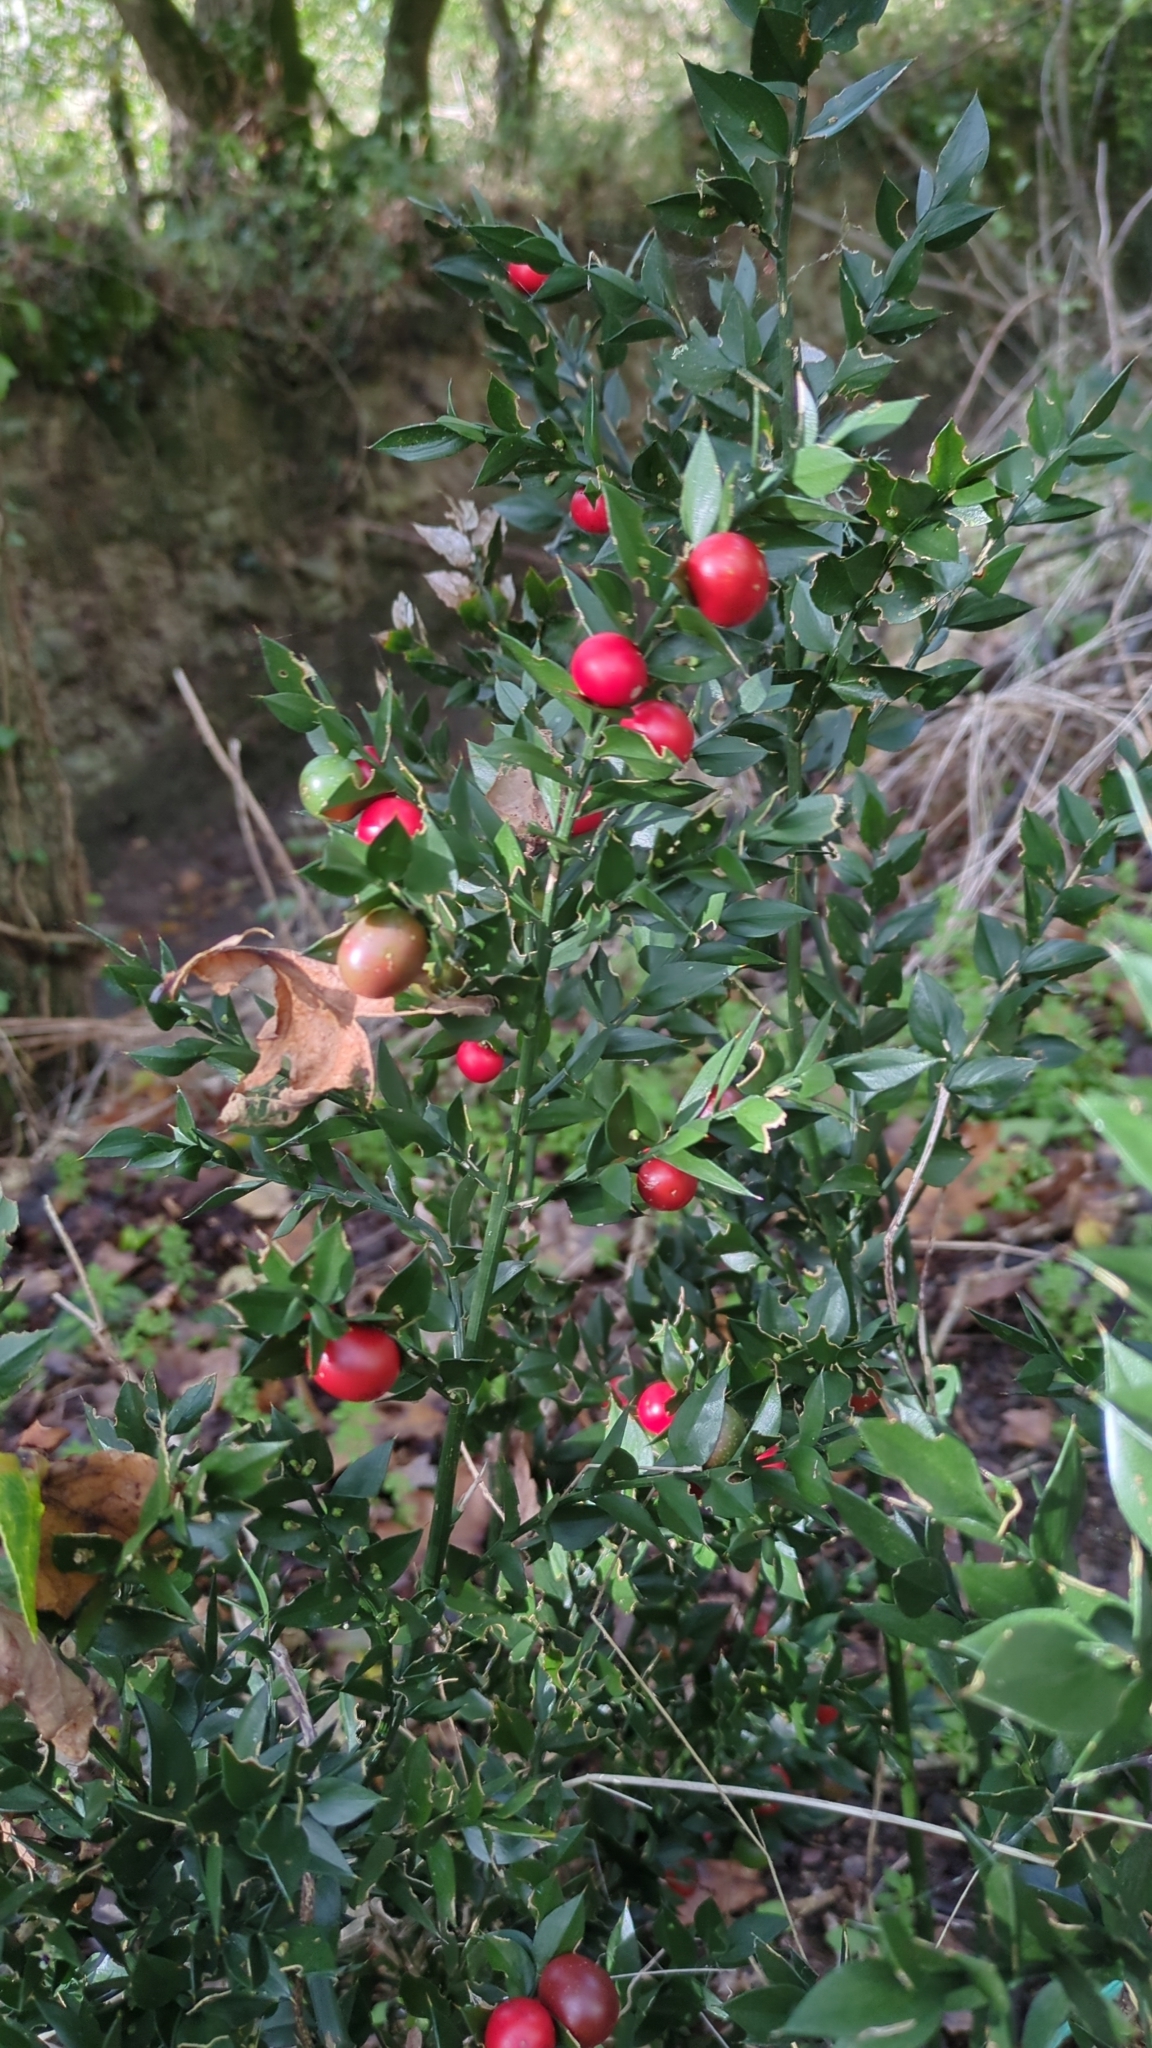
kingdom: Plantae
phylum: Tracheophyta
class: Liliopsida
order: Asparagales
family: Asparagaceae
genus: Ruscus
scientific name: Ruscus aculeatus
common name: Butcher's-broom
